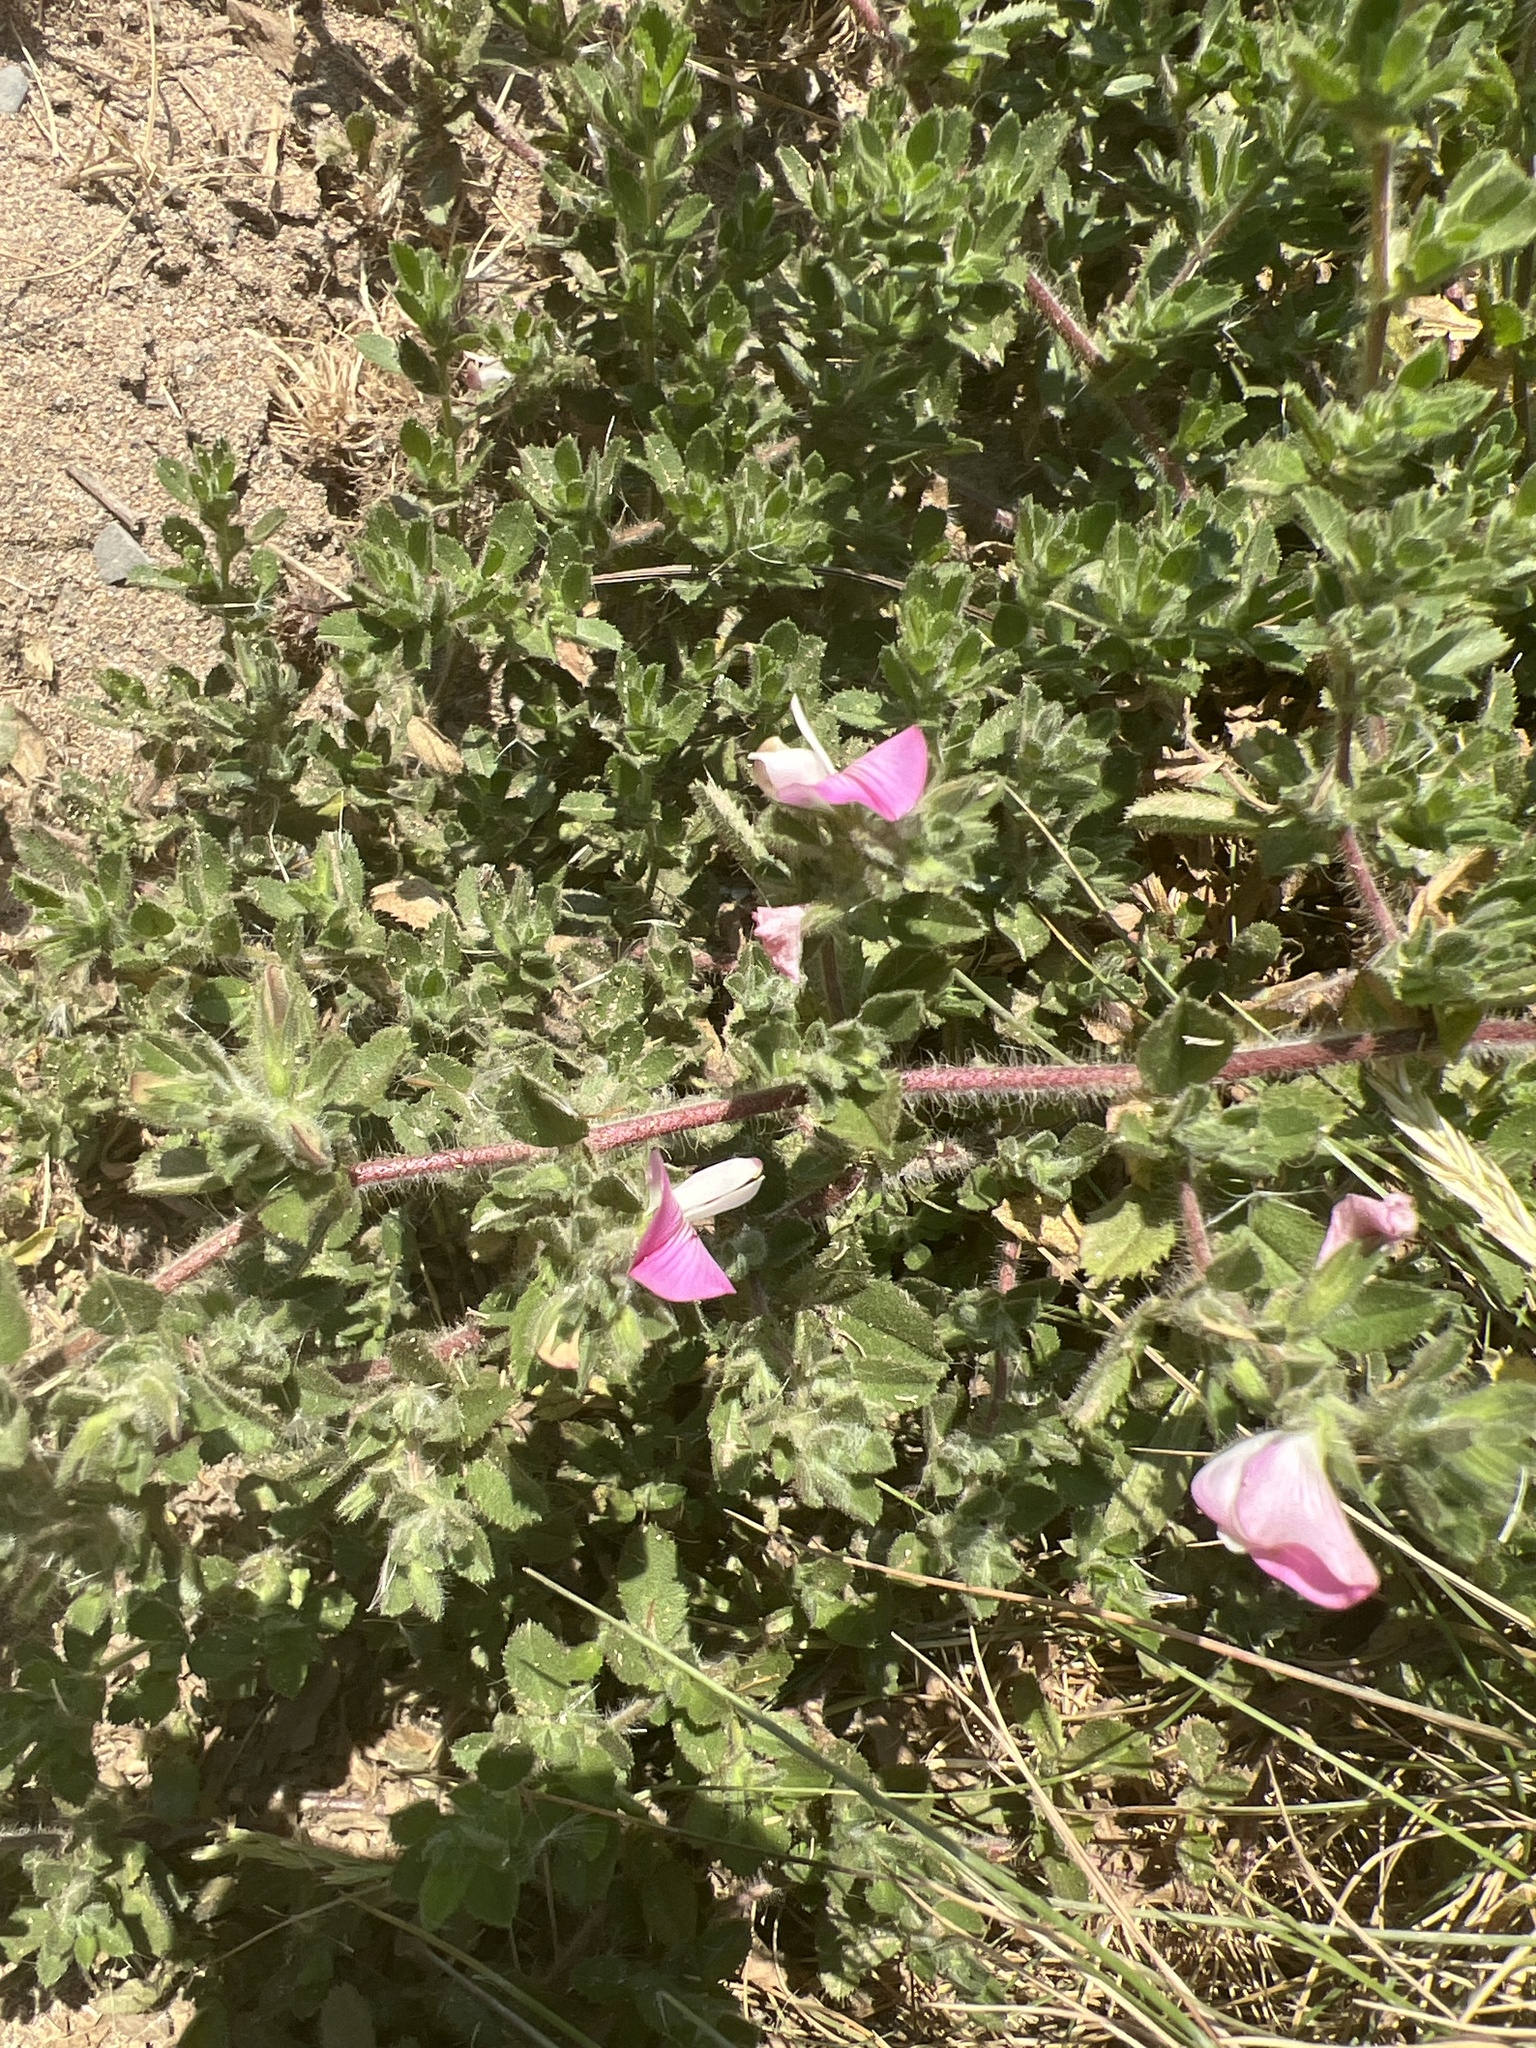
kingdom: Plantae
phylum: Tracheophyta
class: Magnoliopsida
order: Fabales
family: Fabaceae
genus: Ononis
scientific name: Ononis spinosa
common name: Spiny restharrow
